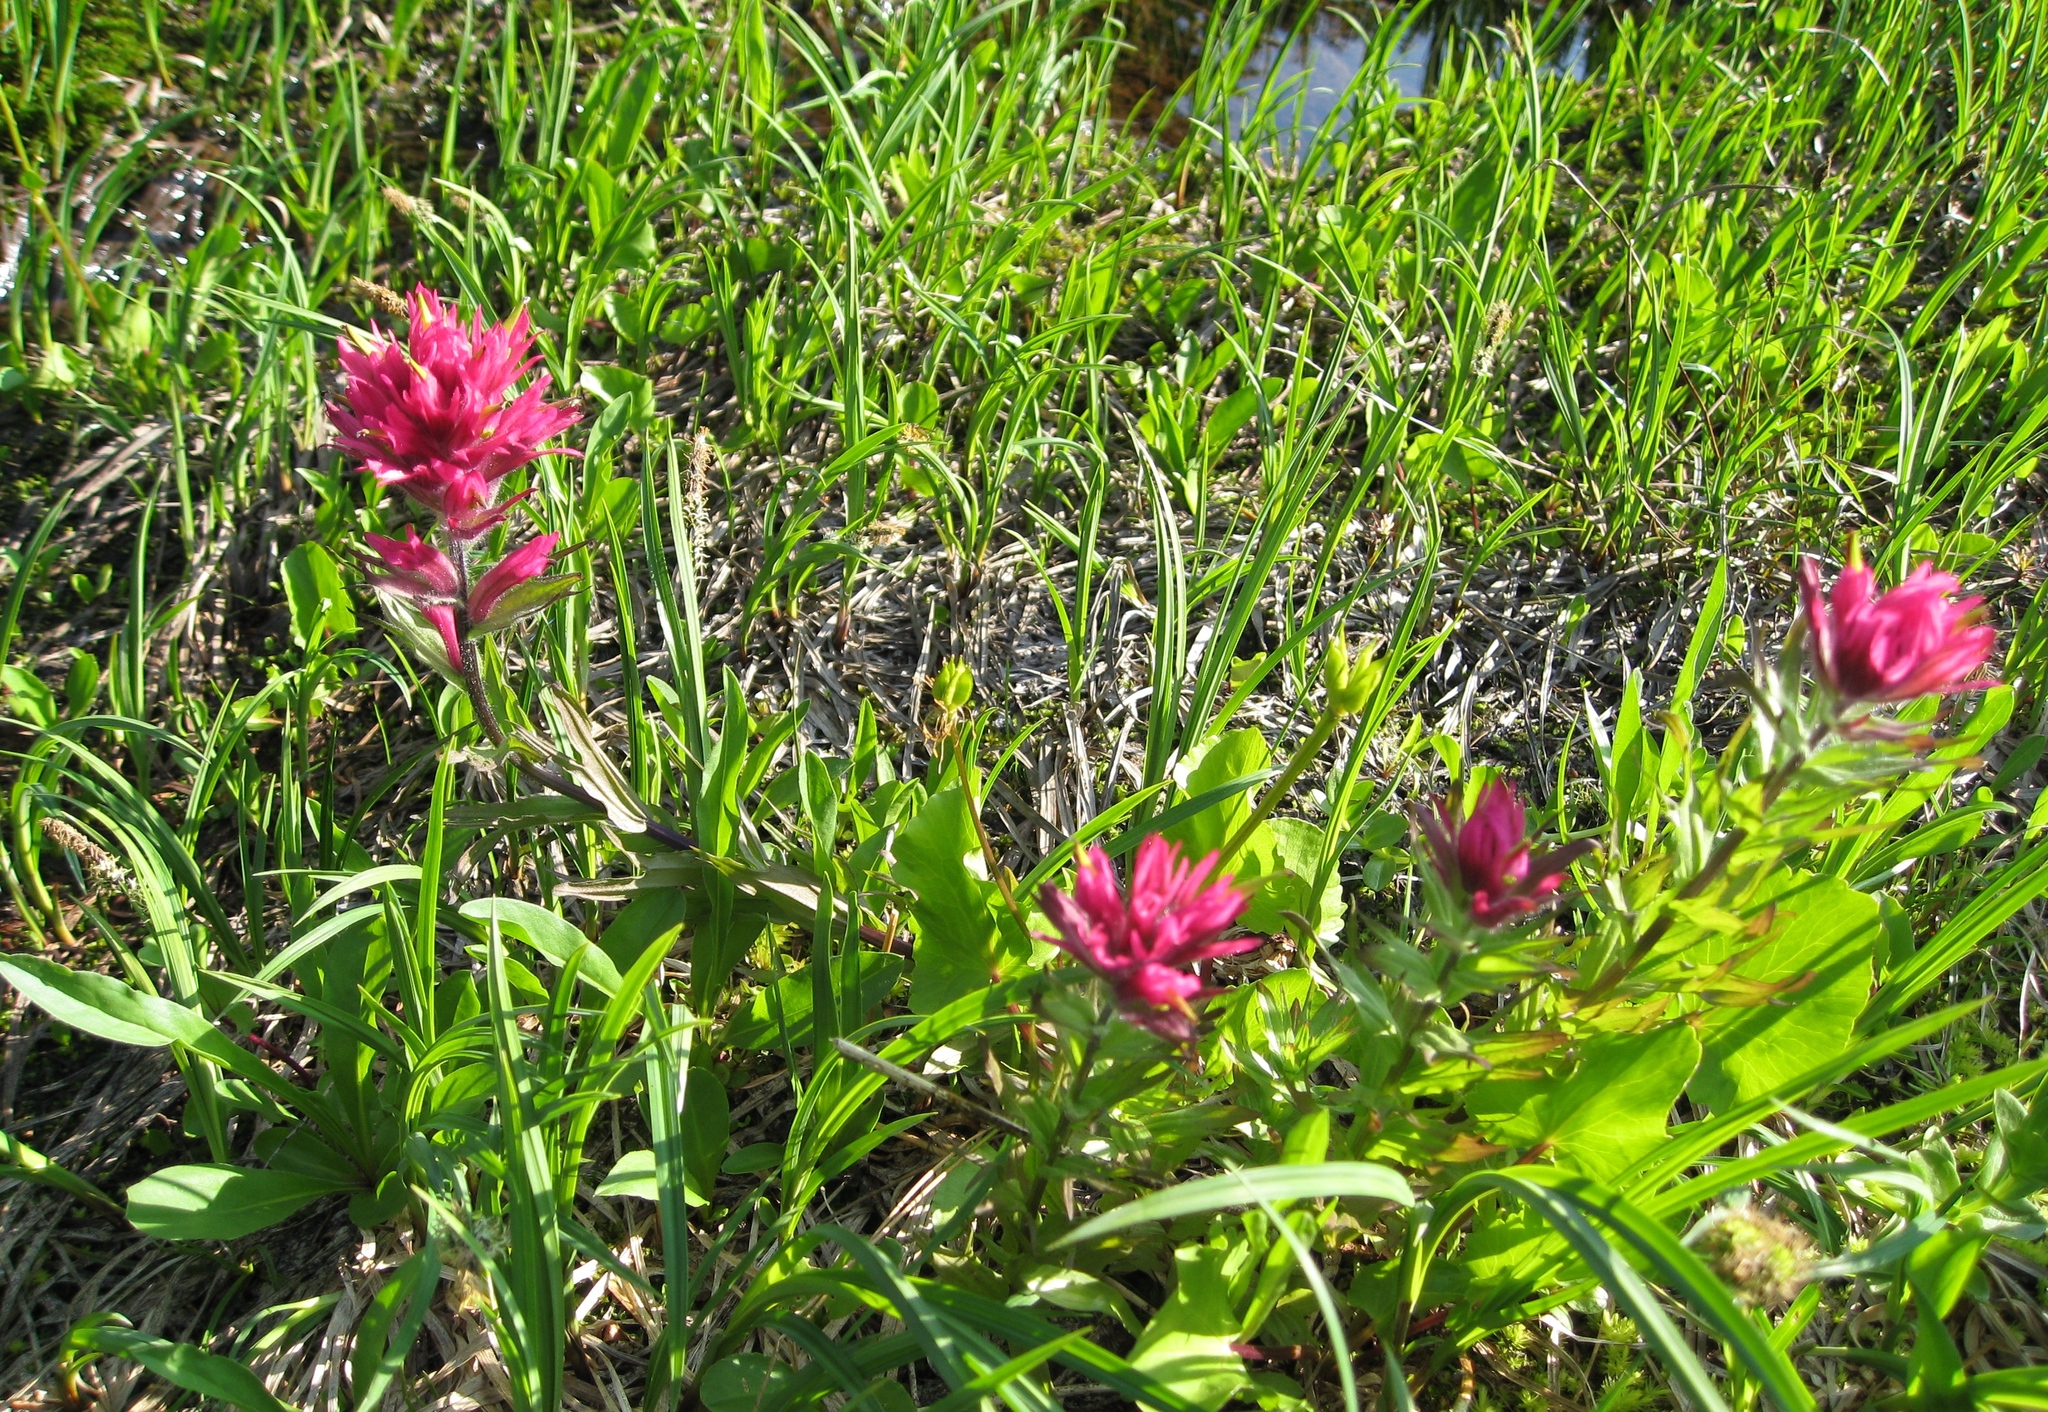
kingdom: Plantae
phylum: Tracheophyta
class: Magnoliopsida
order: Lamiales
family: Orobanchaceae
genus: Castilleja
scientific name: Castilleja parviflora
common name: Mountain paintbrush
